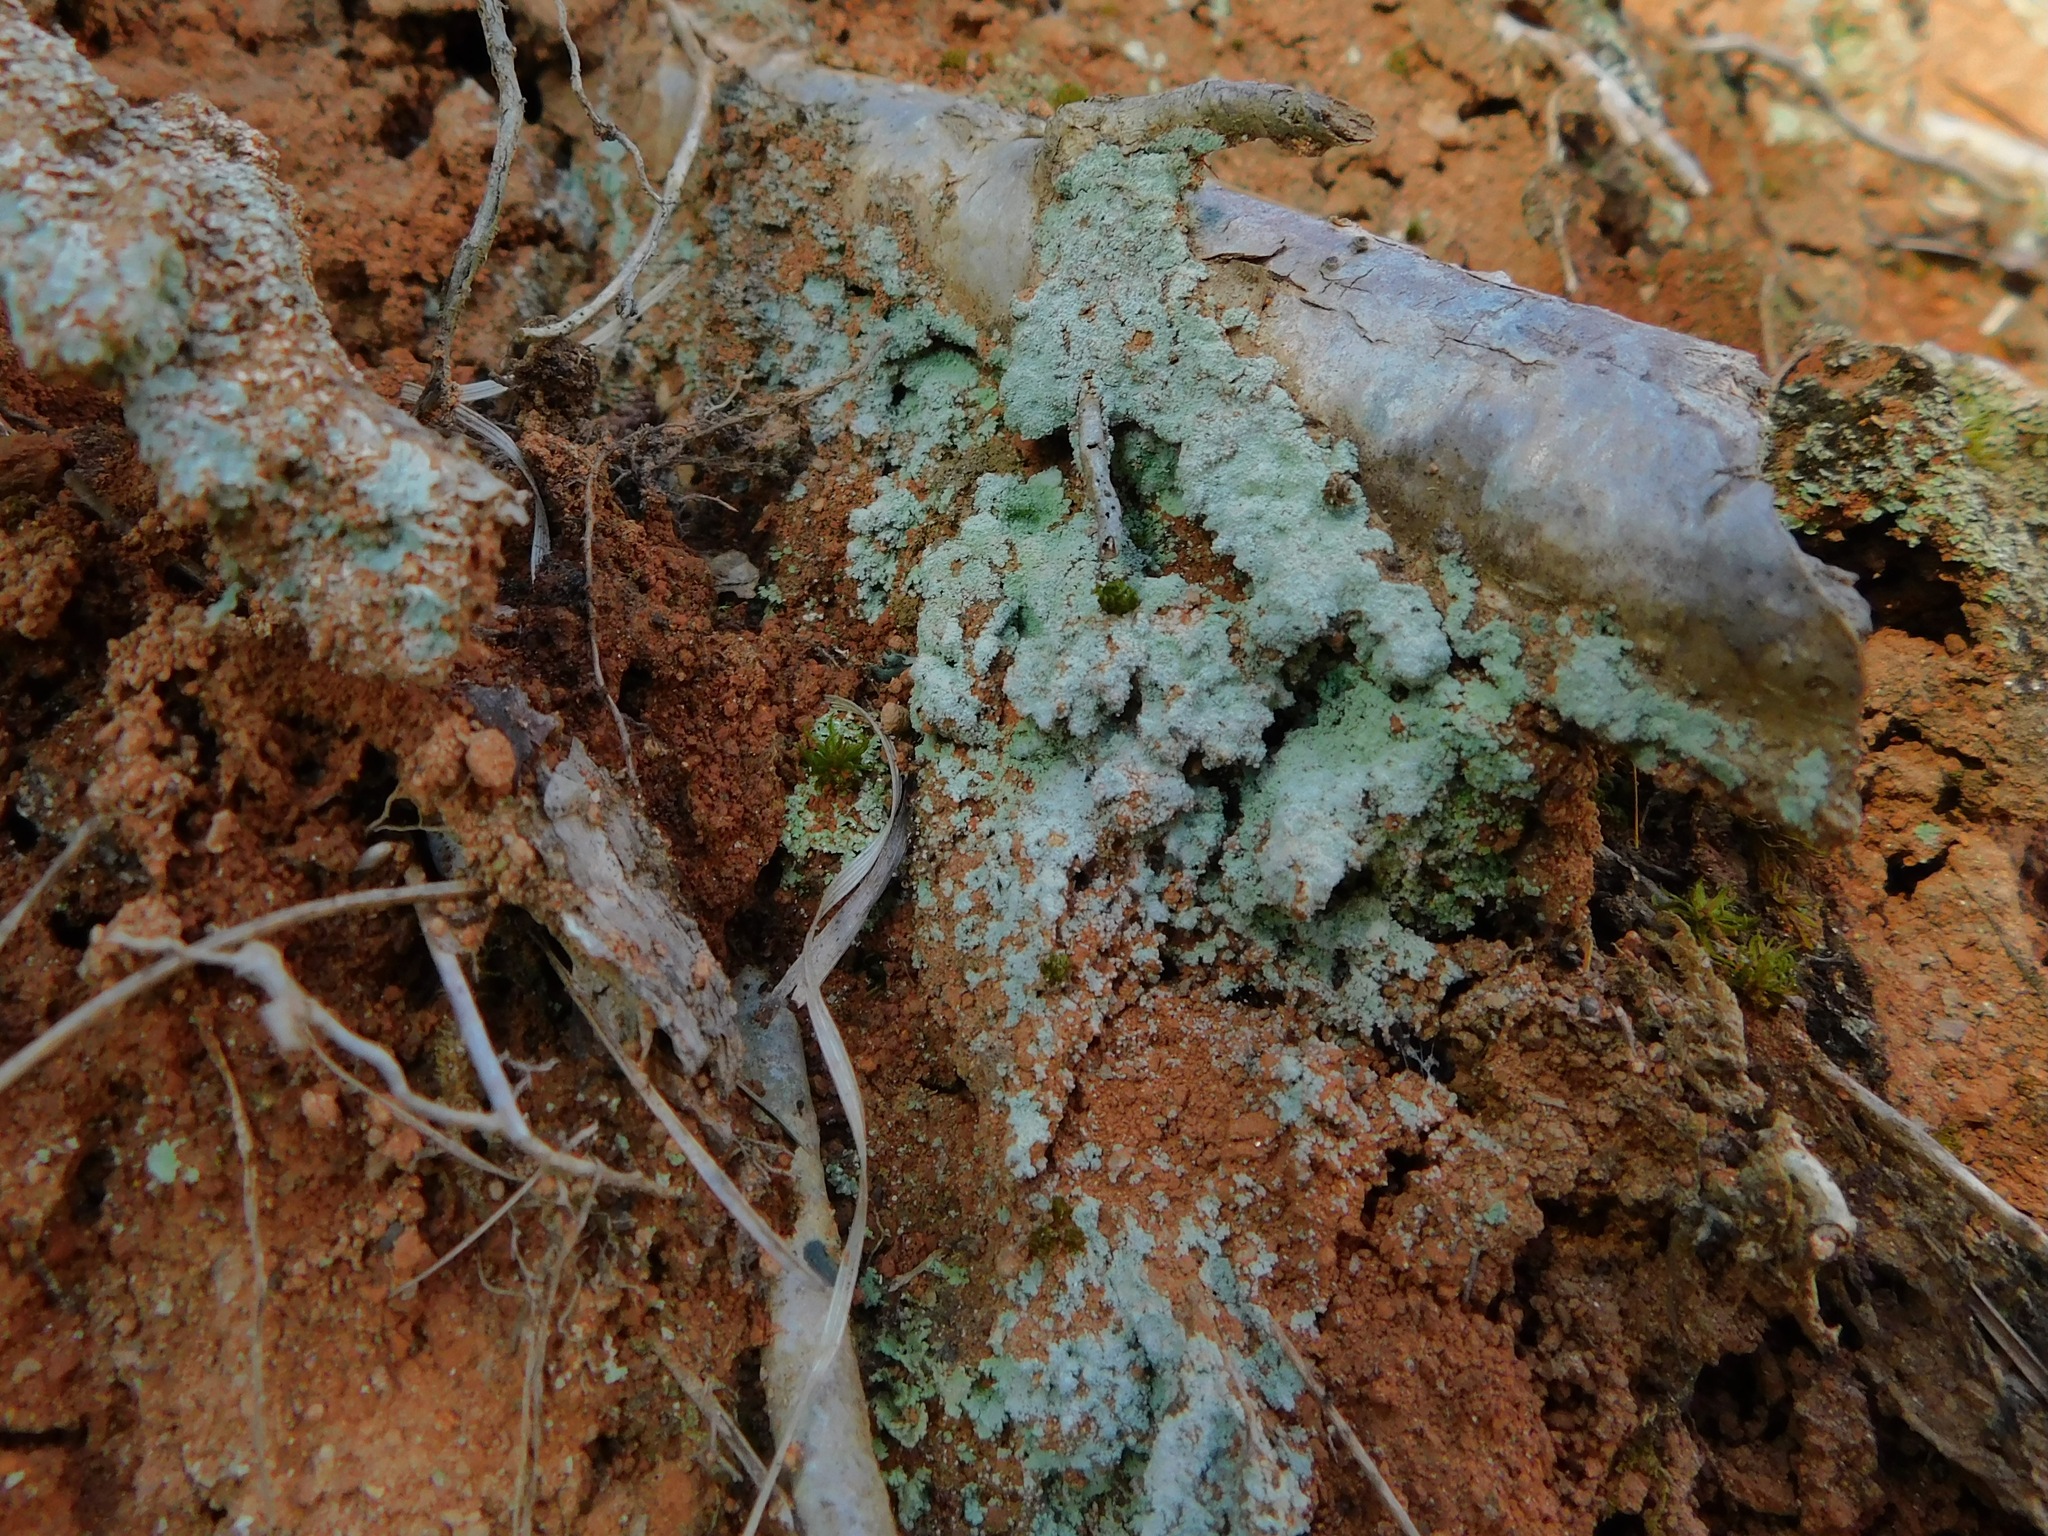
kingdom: Fungi
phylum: Ascomycota
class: Lecanoromycetes
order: Lecanorales
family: Stereocaulaceae
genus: Lepraria
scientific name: Lepraria lobificans
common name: Fluffy dust lichen
